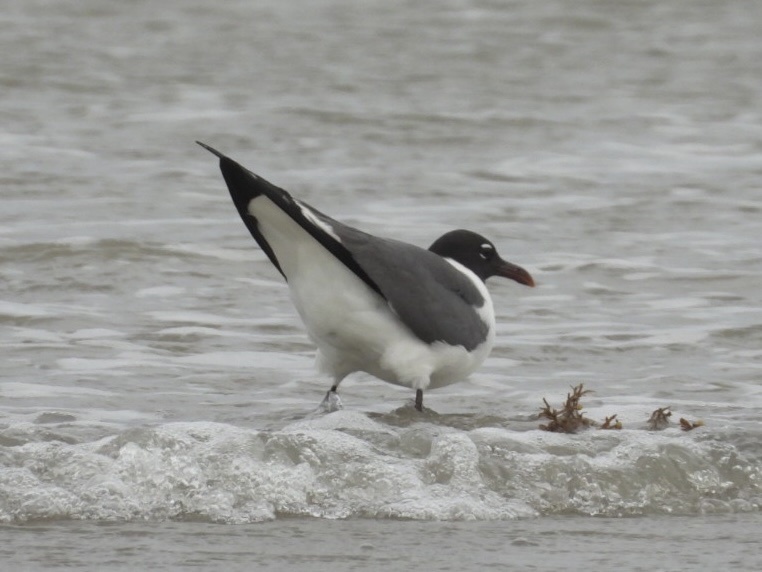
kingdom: Animalia
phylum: Chordata
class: Aves
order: Charadriiformes
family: Laridae
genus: Leucophaeus
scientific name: Leucophaeus atricilla
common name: Laughing gull
